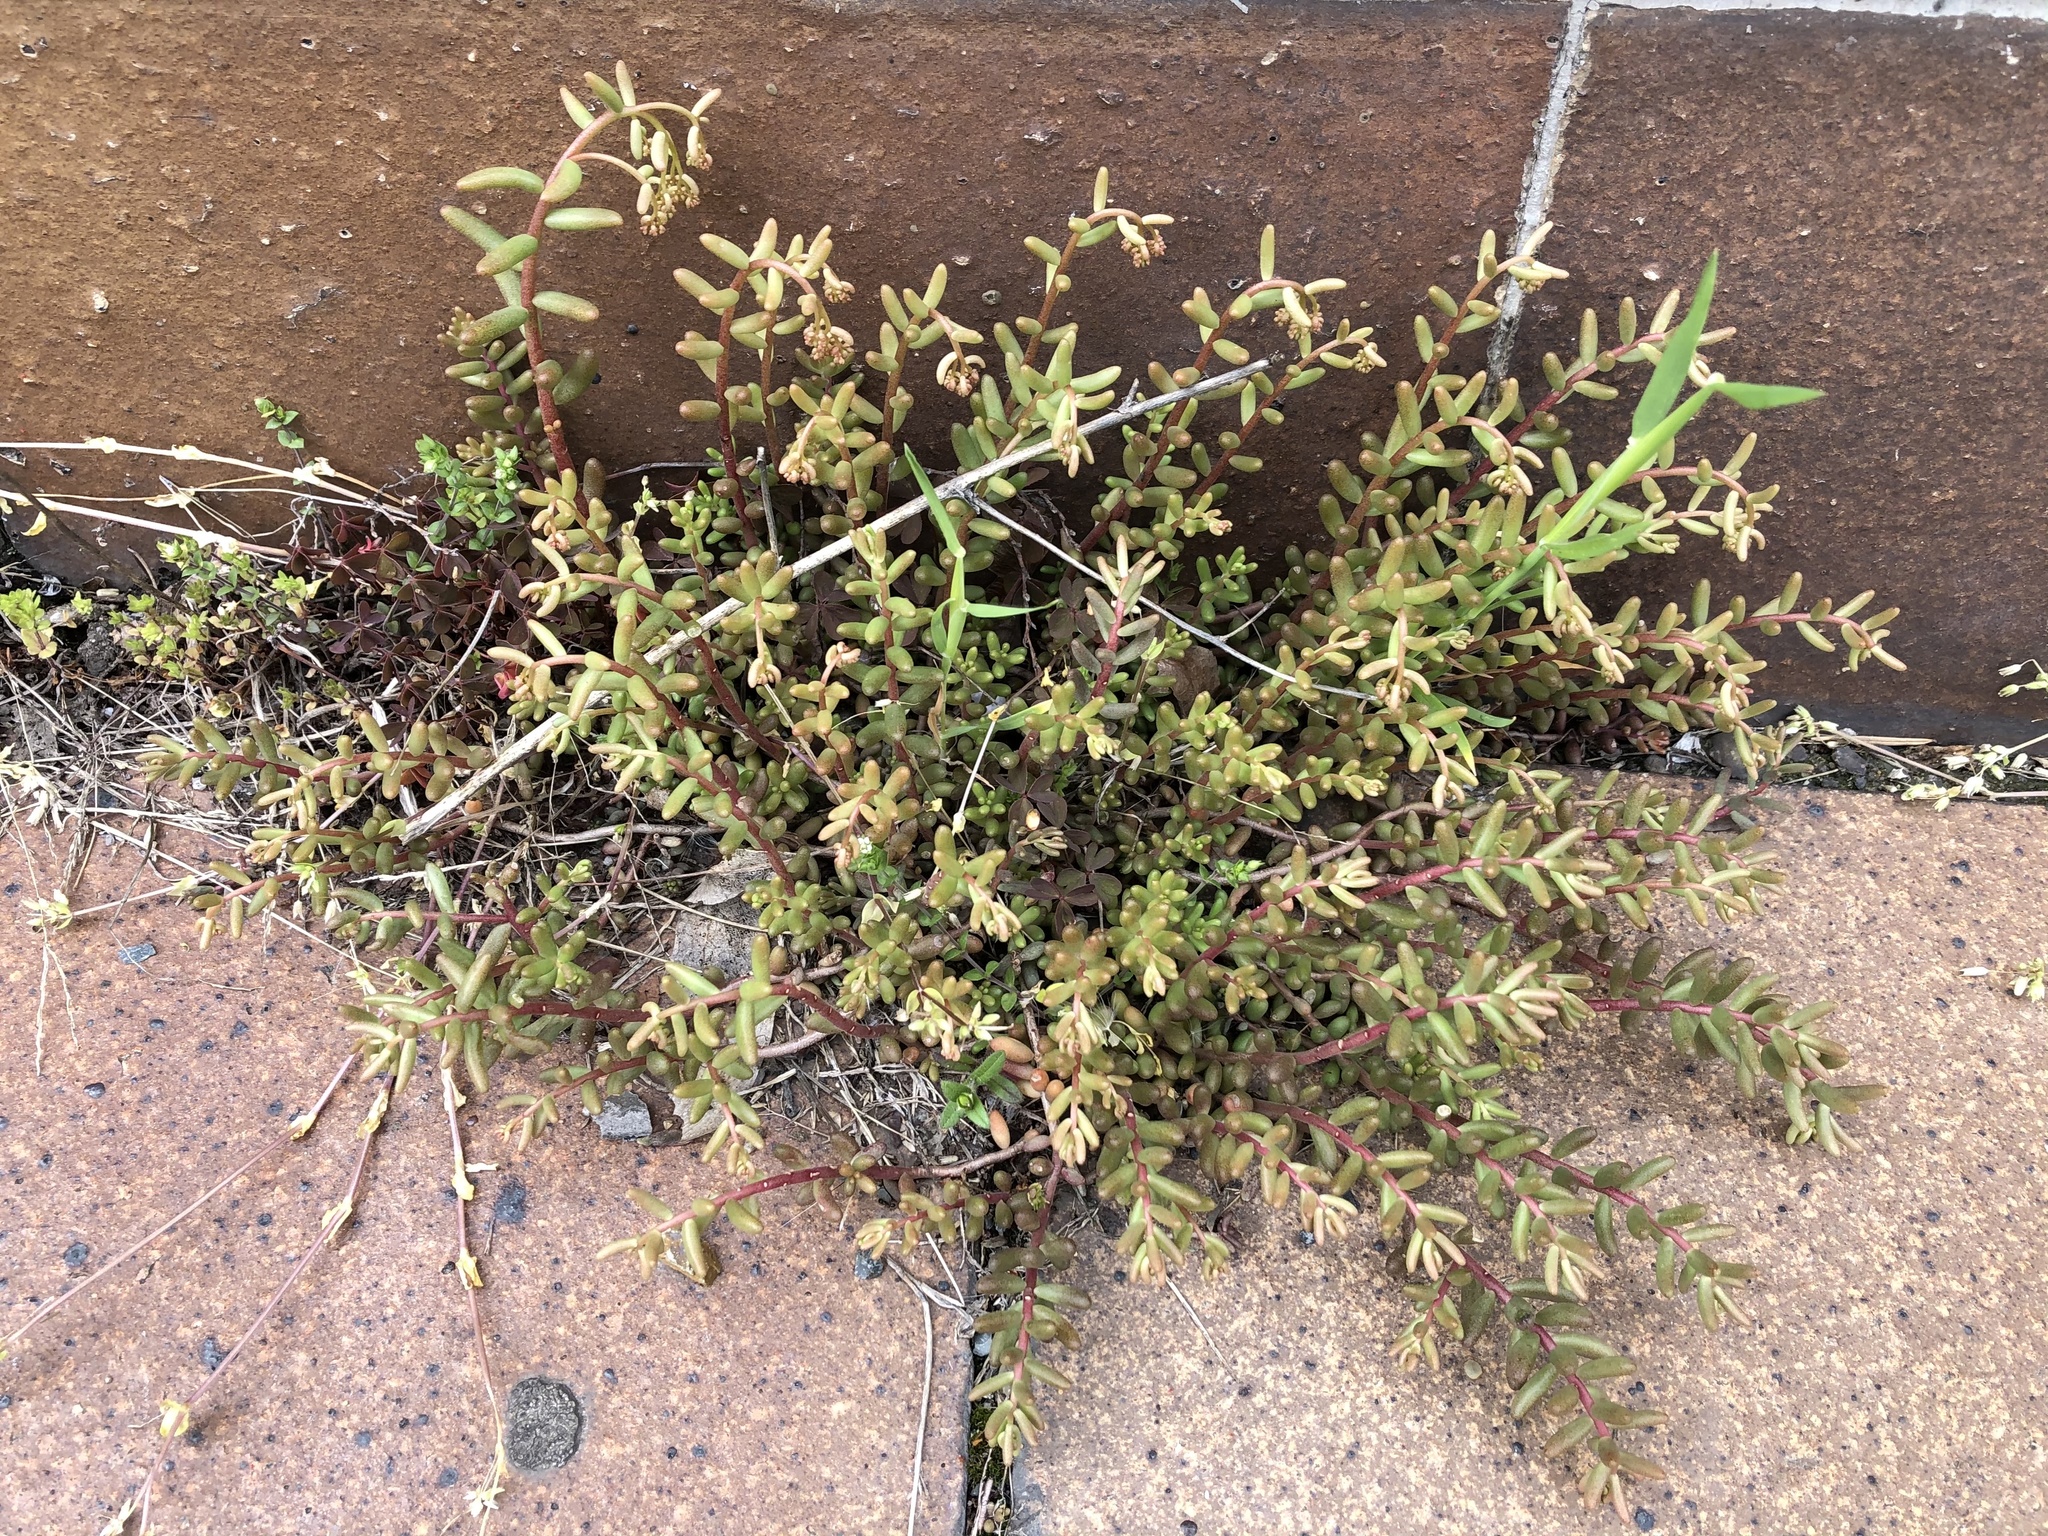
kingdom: Plantae
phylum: Tracheophyta
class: Magnoliopsida
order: Saxifragales
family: Crassulaceae
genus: Sedum
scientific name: Sedum album
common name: White stonecrop
